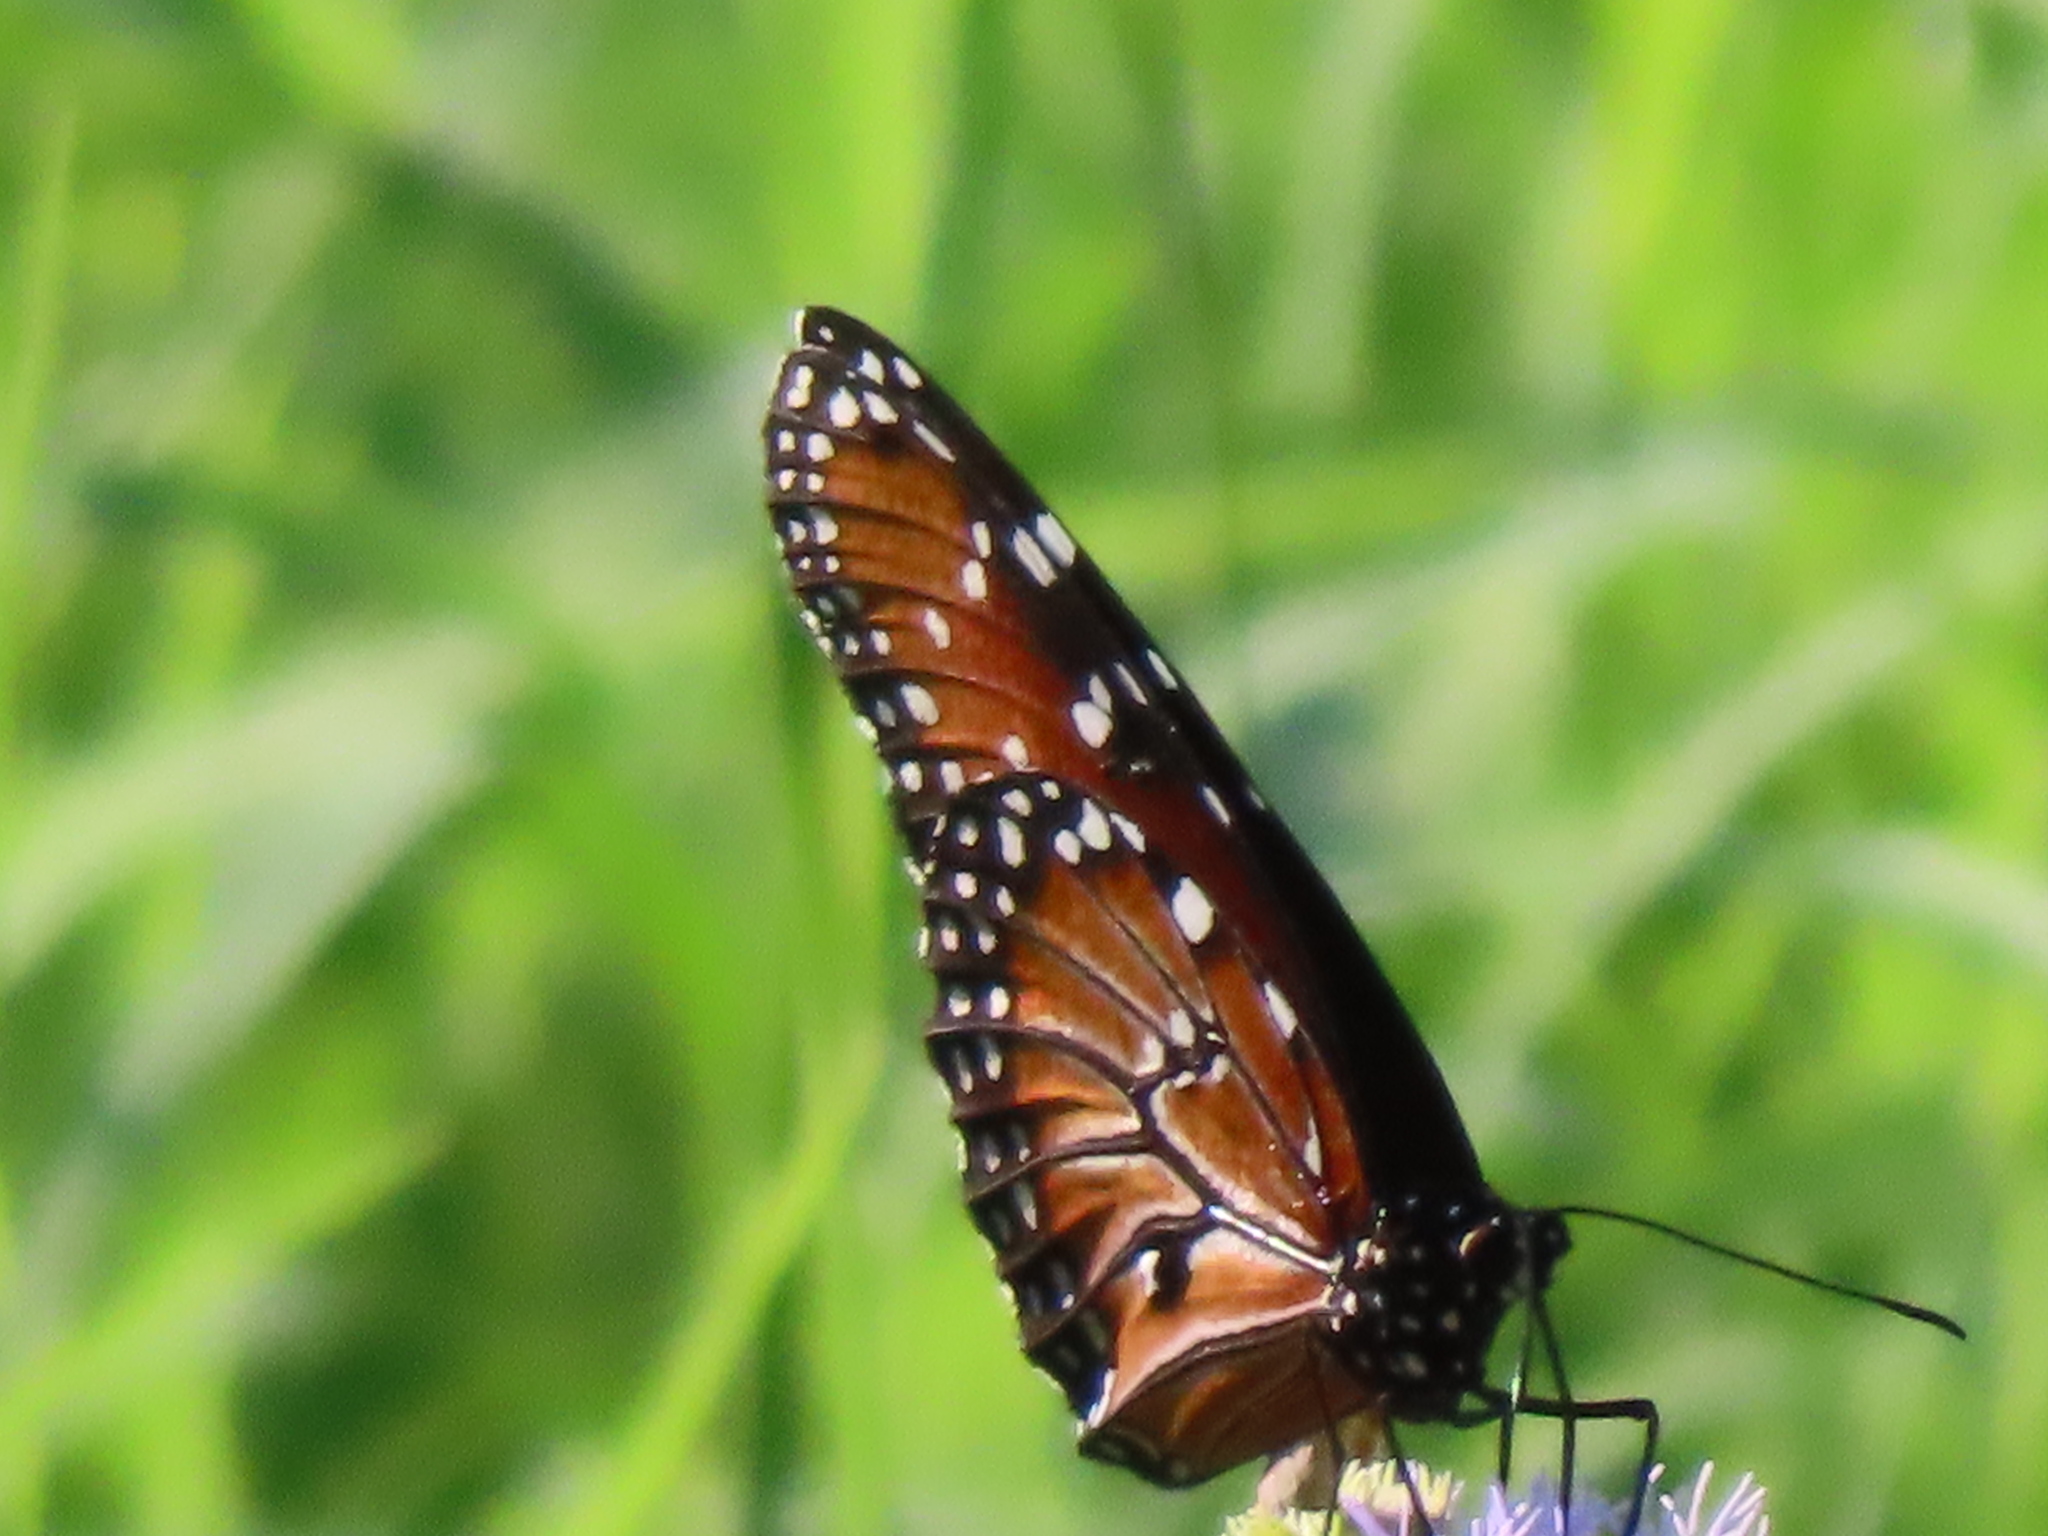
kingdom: Animalia
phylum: Arthropoda
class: Insecta
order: Lepidoptera
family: Nymphalidae
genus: Danaus
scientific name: Danaus gilippus
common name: Queen
